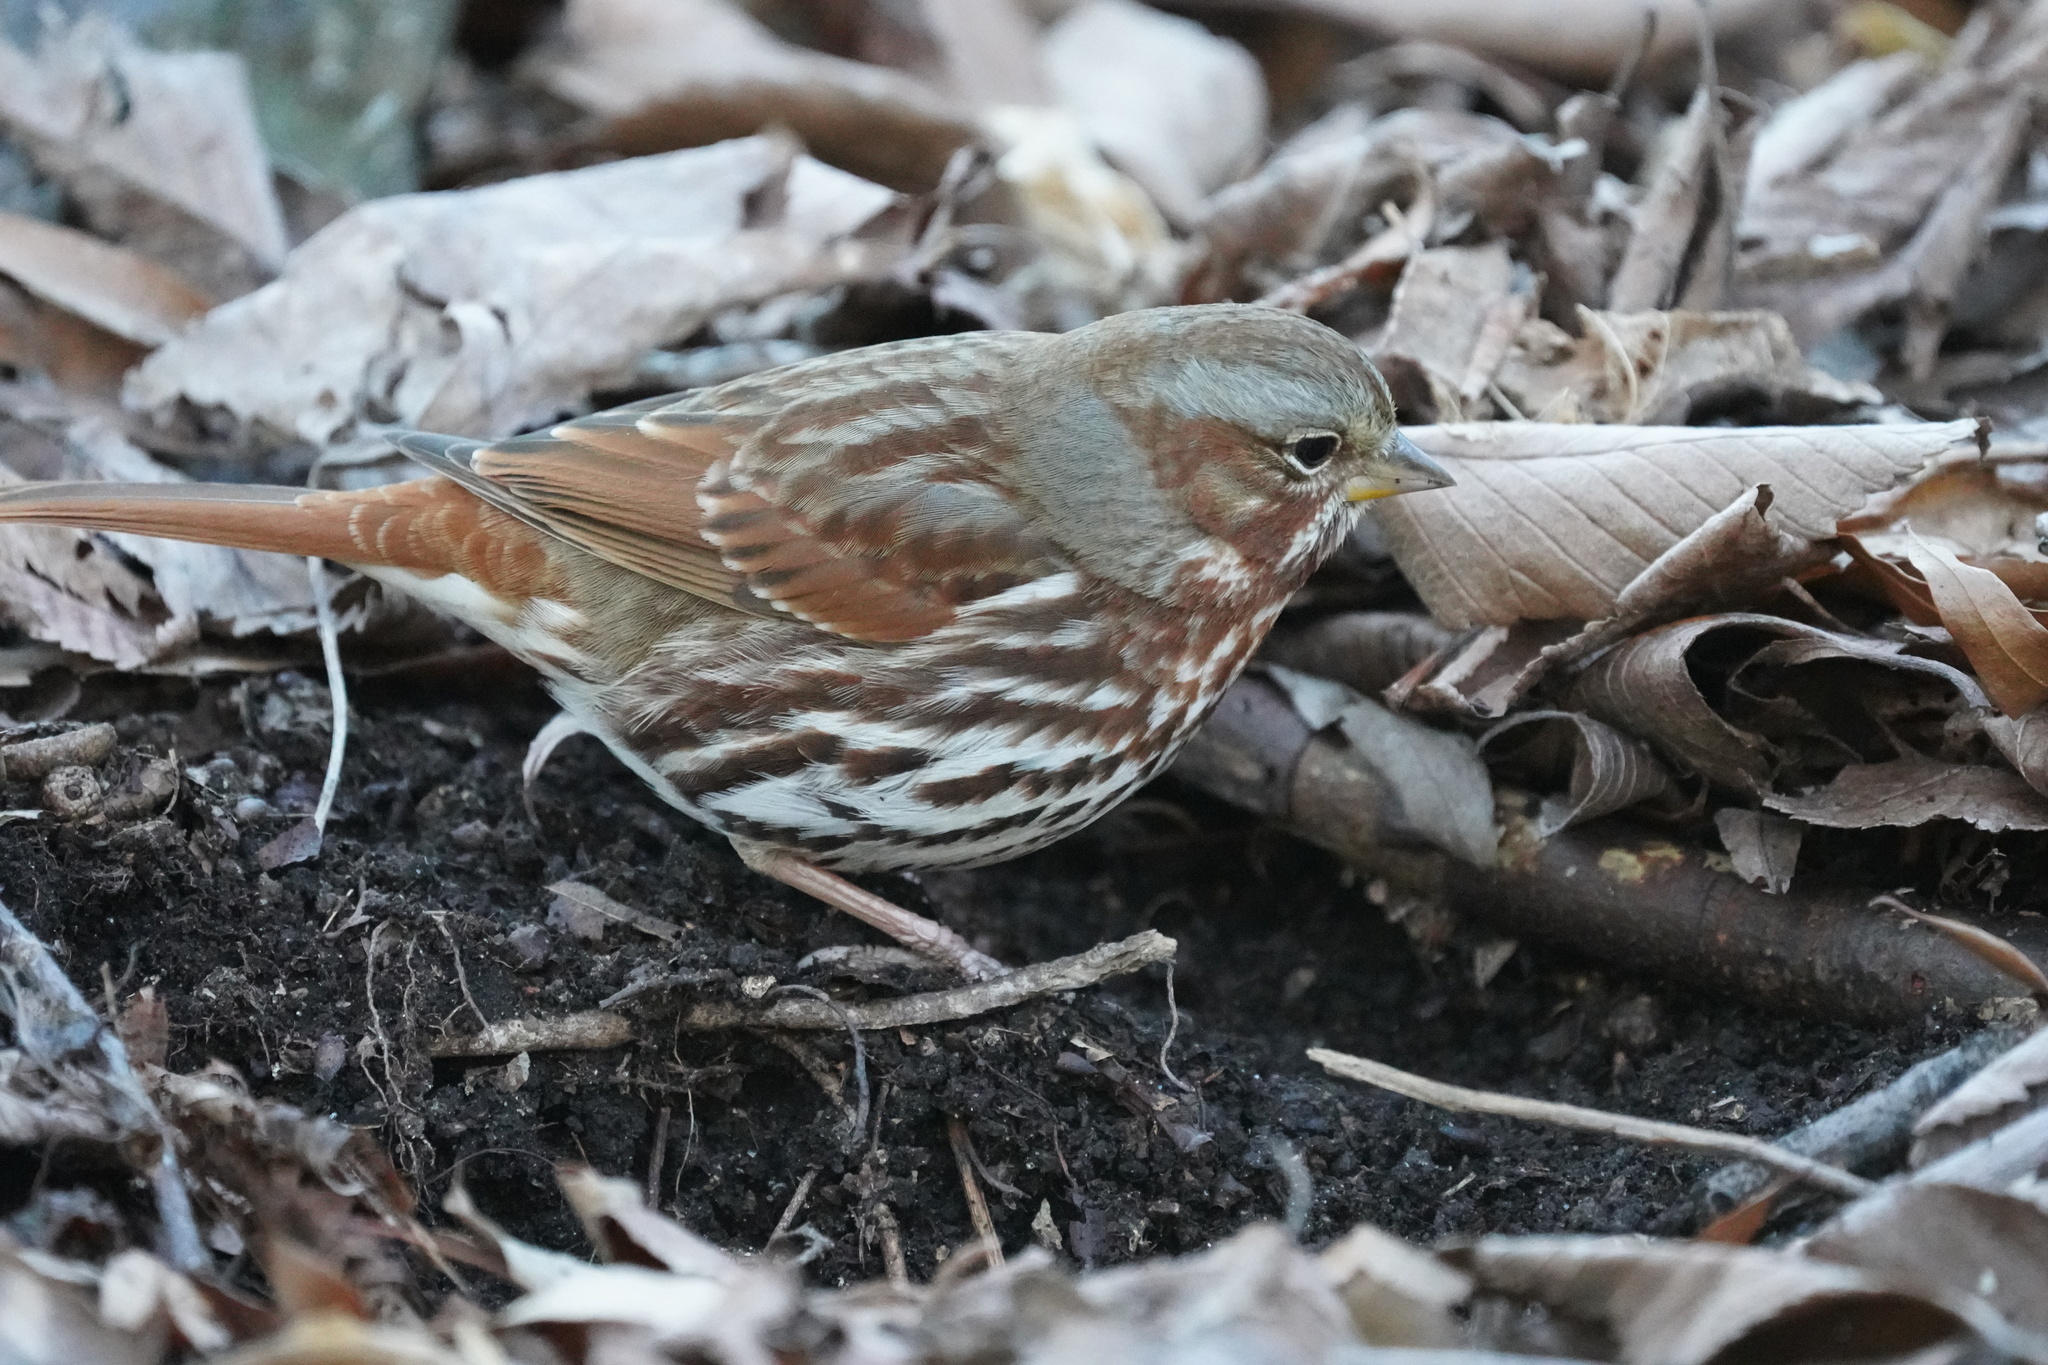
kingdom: Animalia
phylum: Chordata
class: Aves
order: Passeriformes
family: Passerellidae
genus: Passerella
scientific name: Passerella iliaca
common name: Fox sparrow
